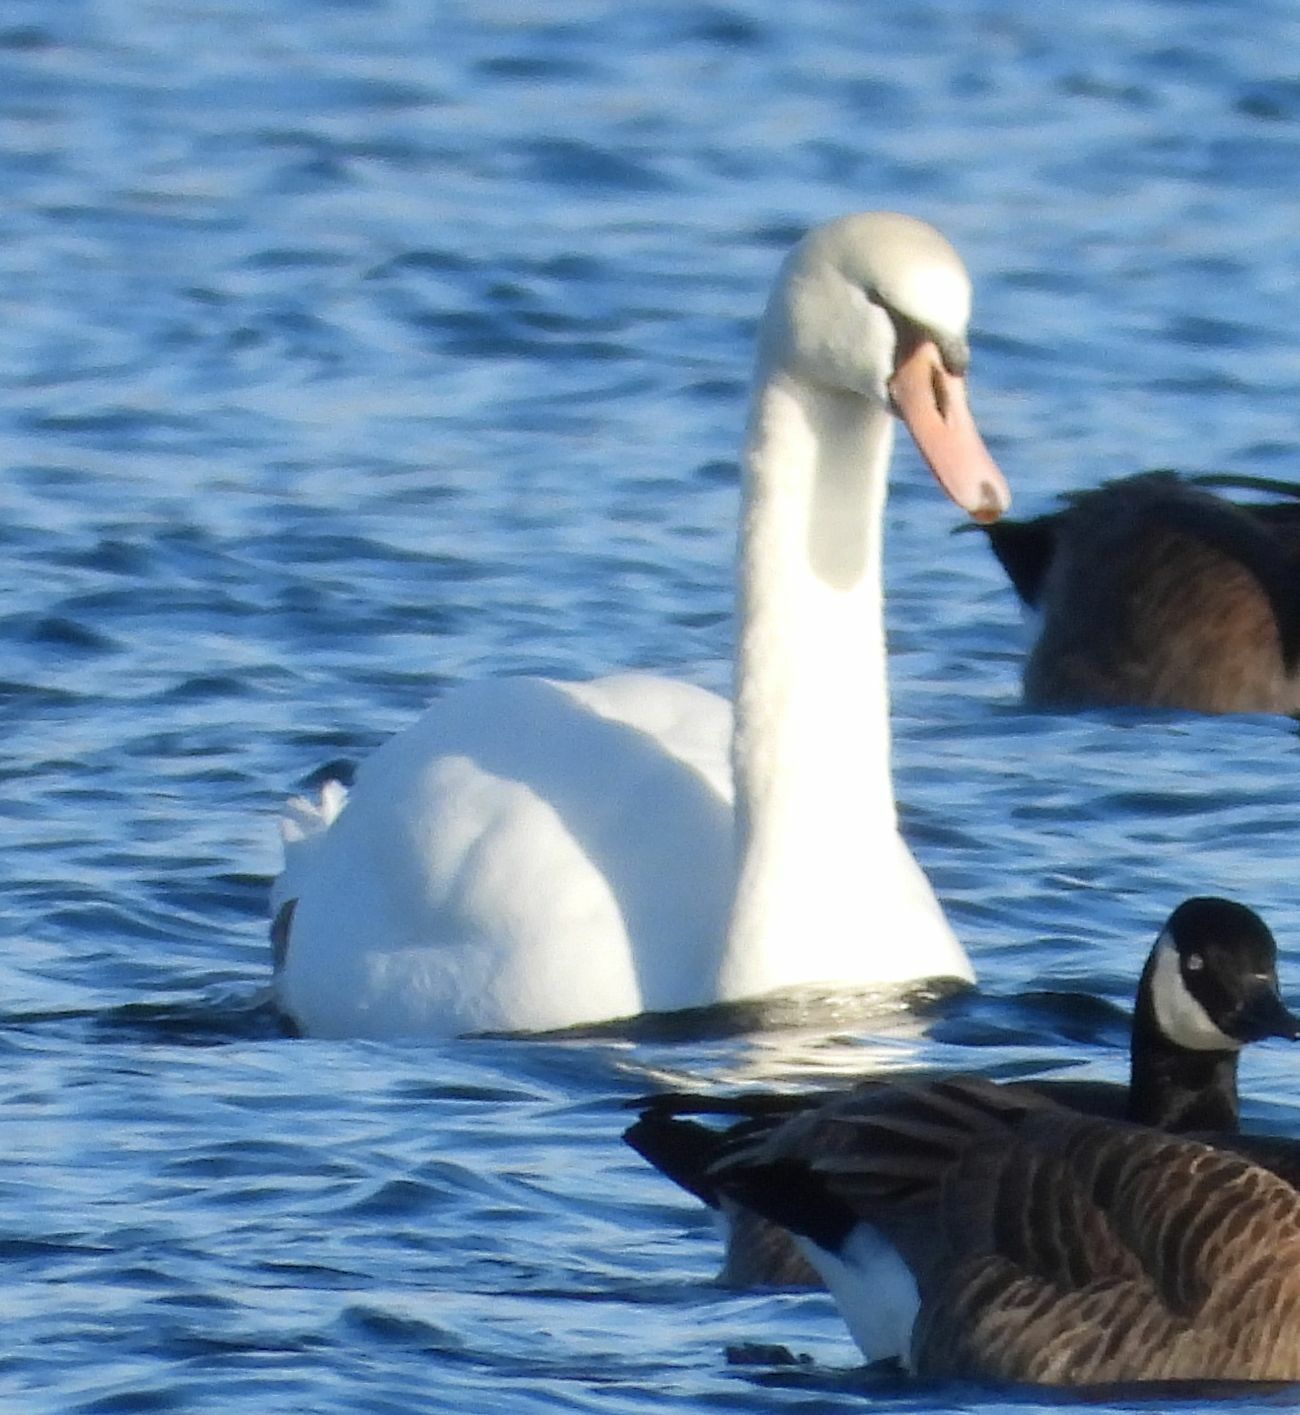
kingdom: Animalia
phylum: Chordata
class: Aves
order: Anseriformes
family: Anatidae
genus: Cygnus
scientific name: Cygnus olor
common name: Mute swan
